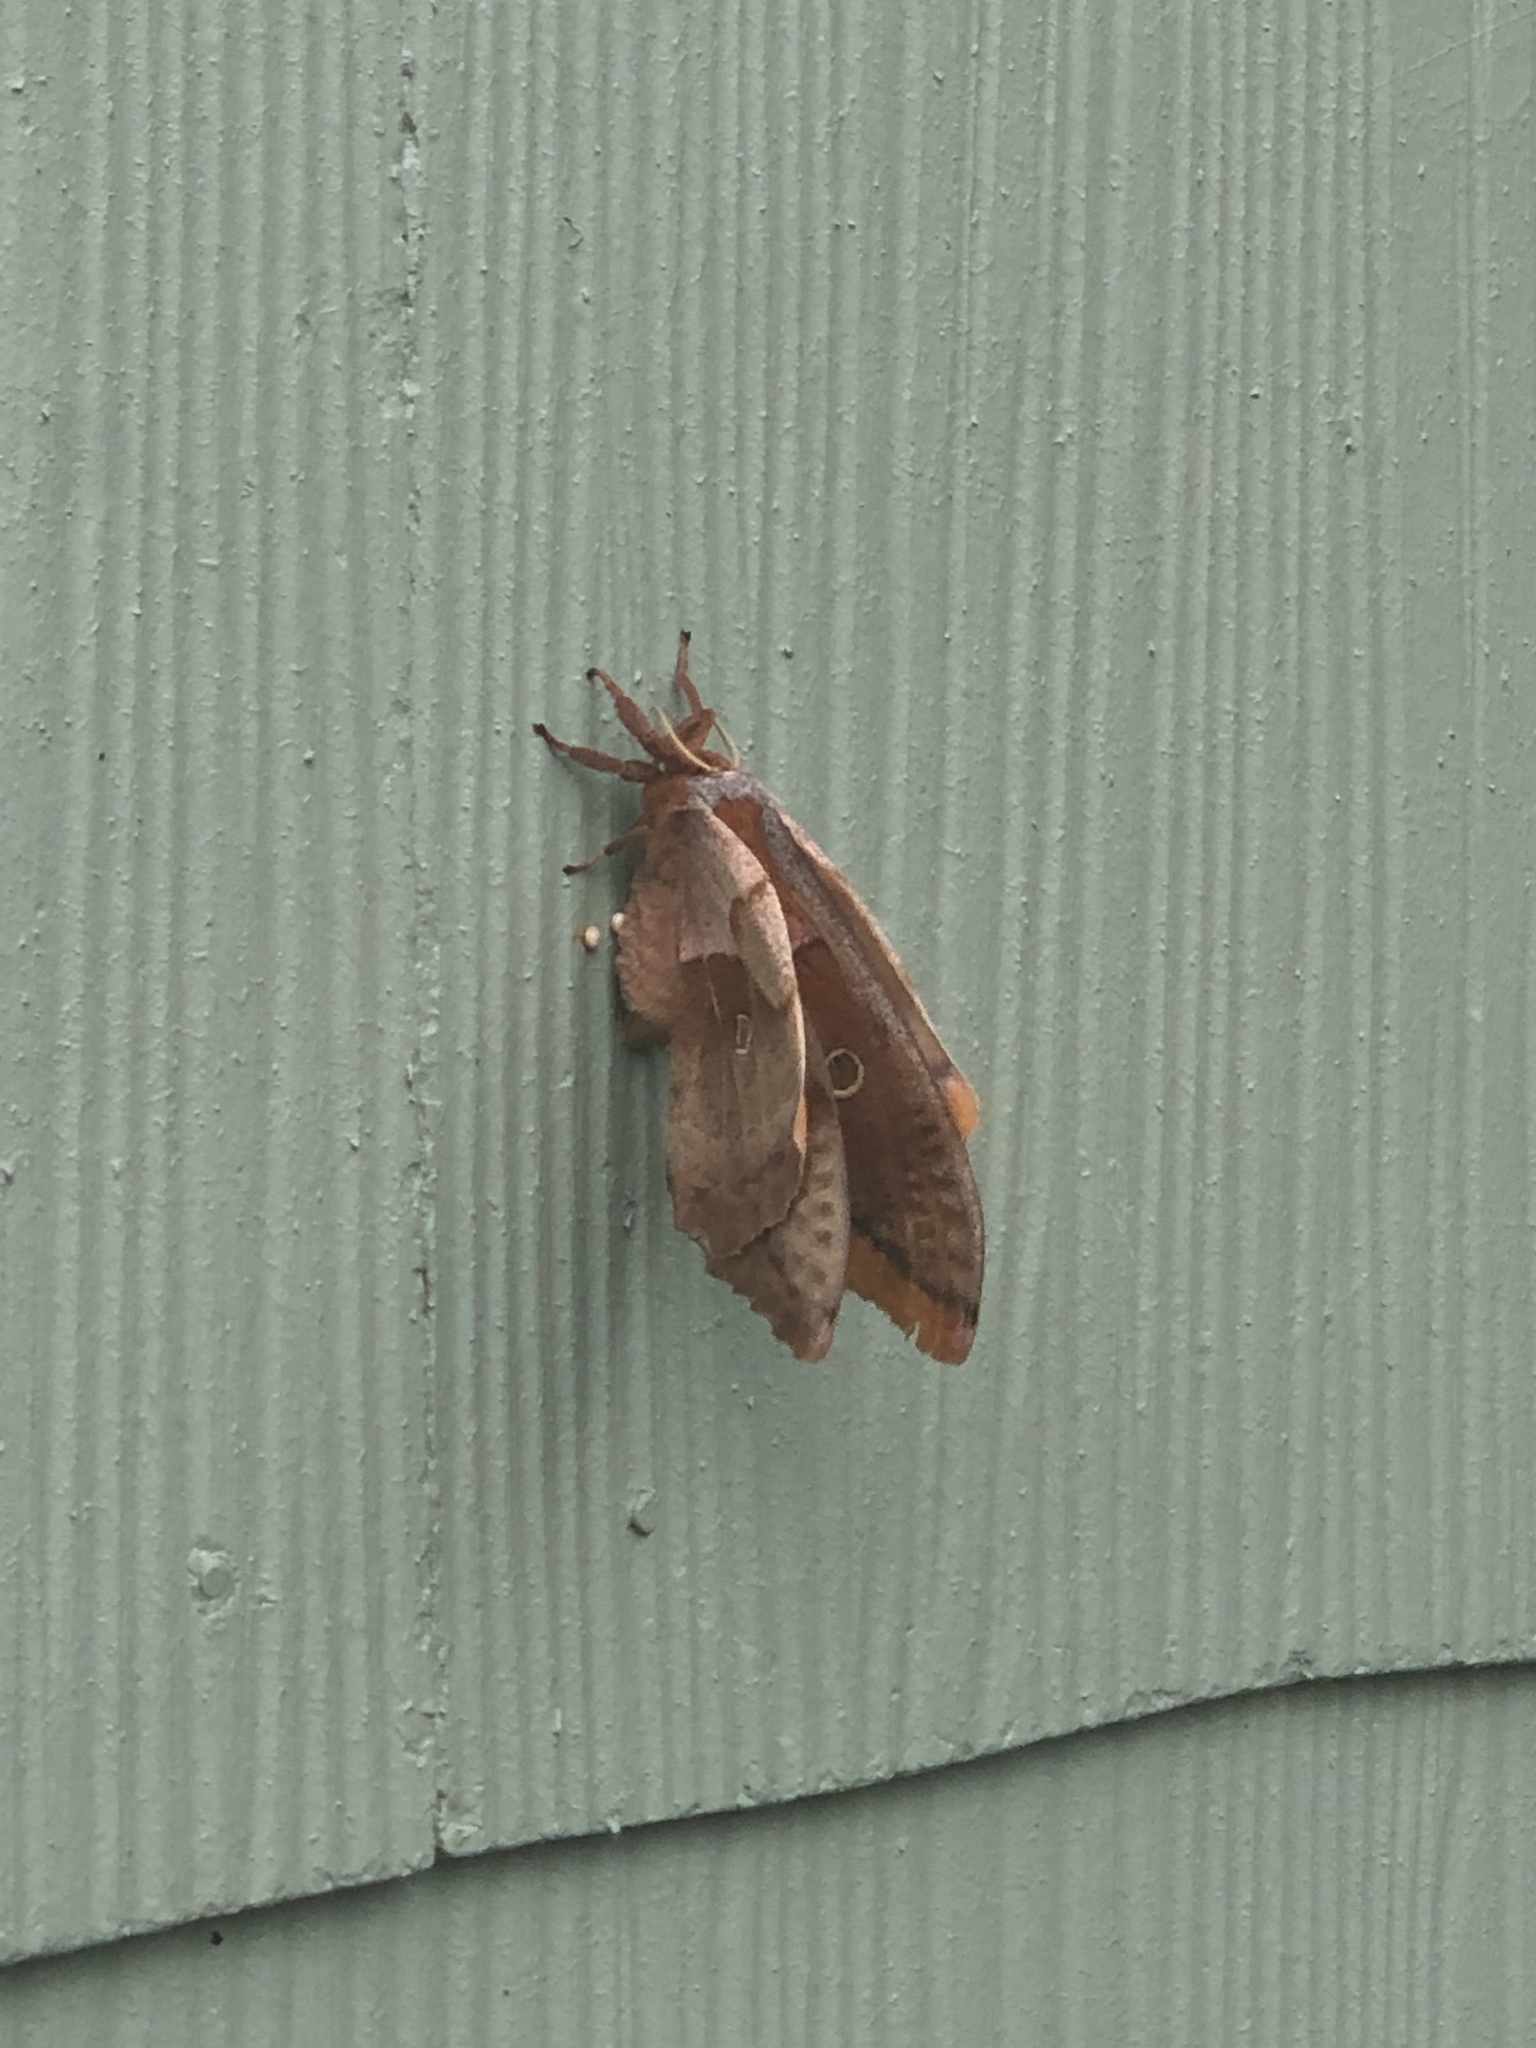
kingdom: Animalia
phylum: Arthropoda
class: Insecta
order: Lepidoptera
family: Saturniidae
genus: Antheraea
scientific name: Antheraea polyphemus
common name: Polyphemus moth
